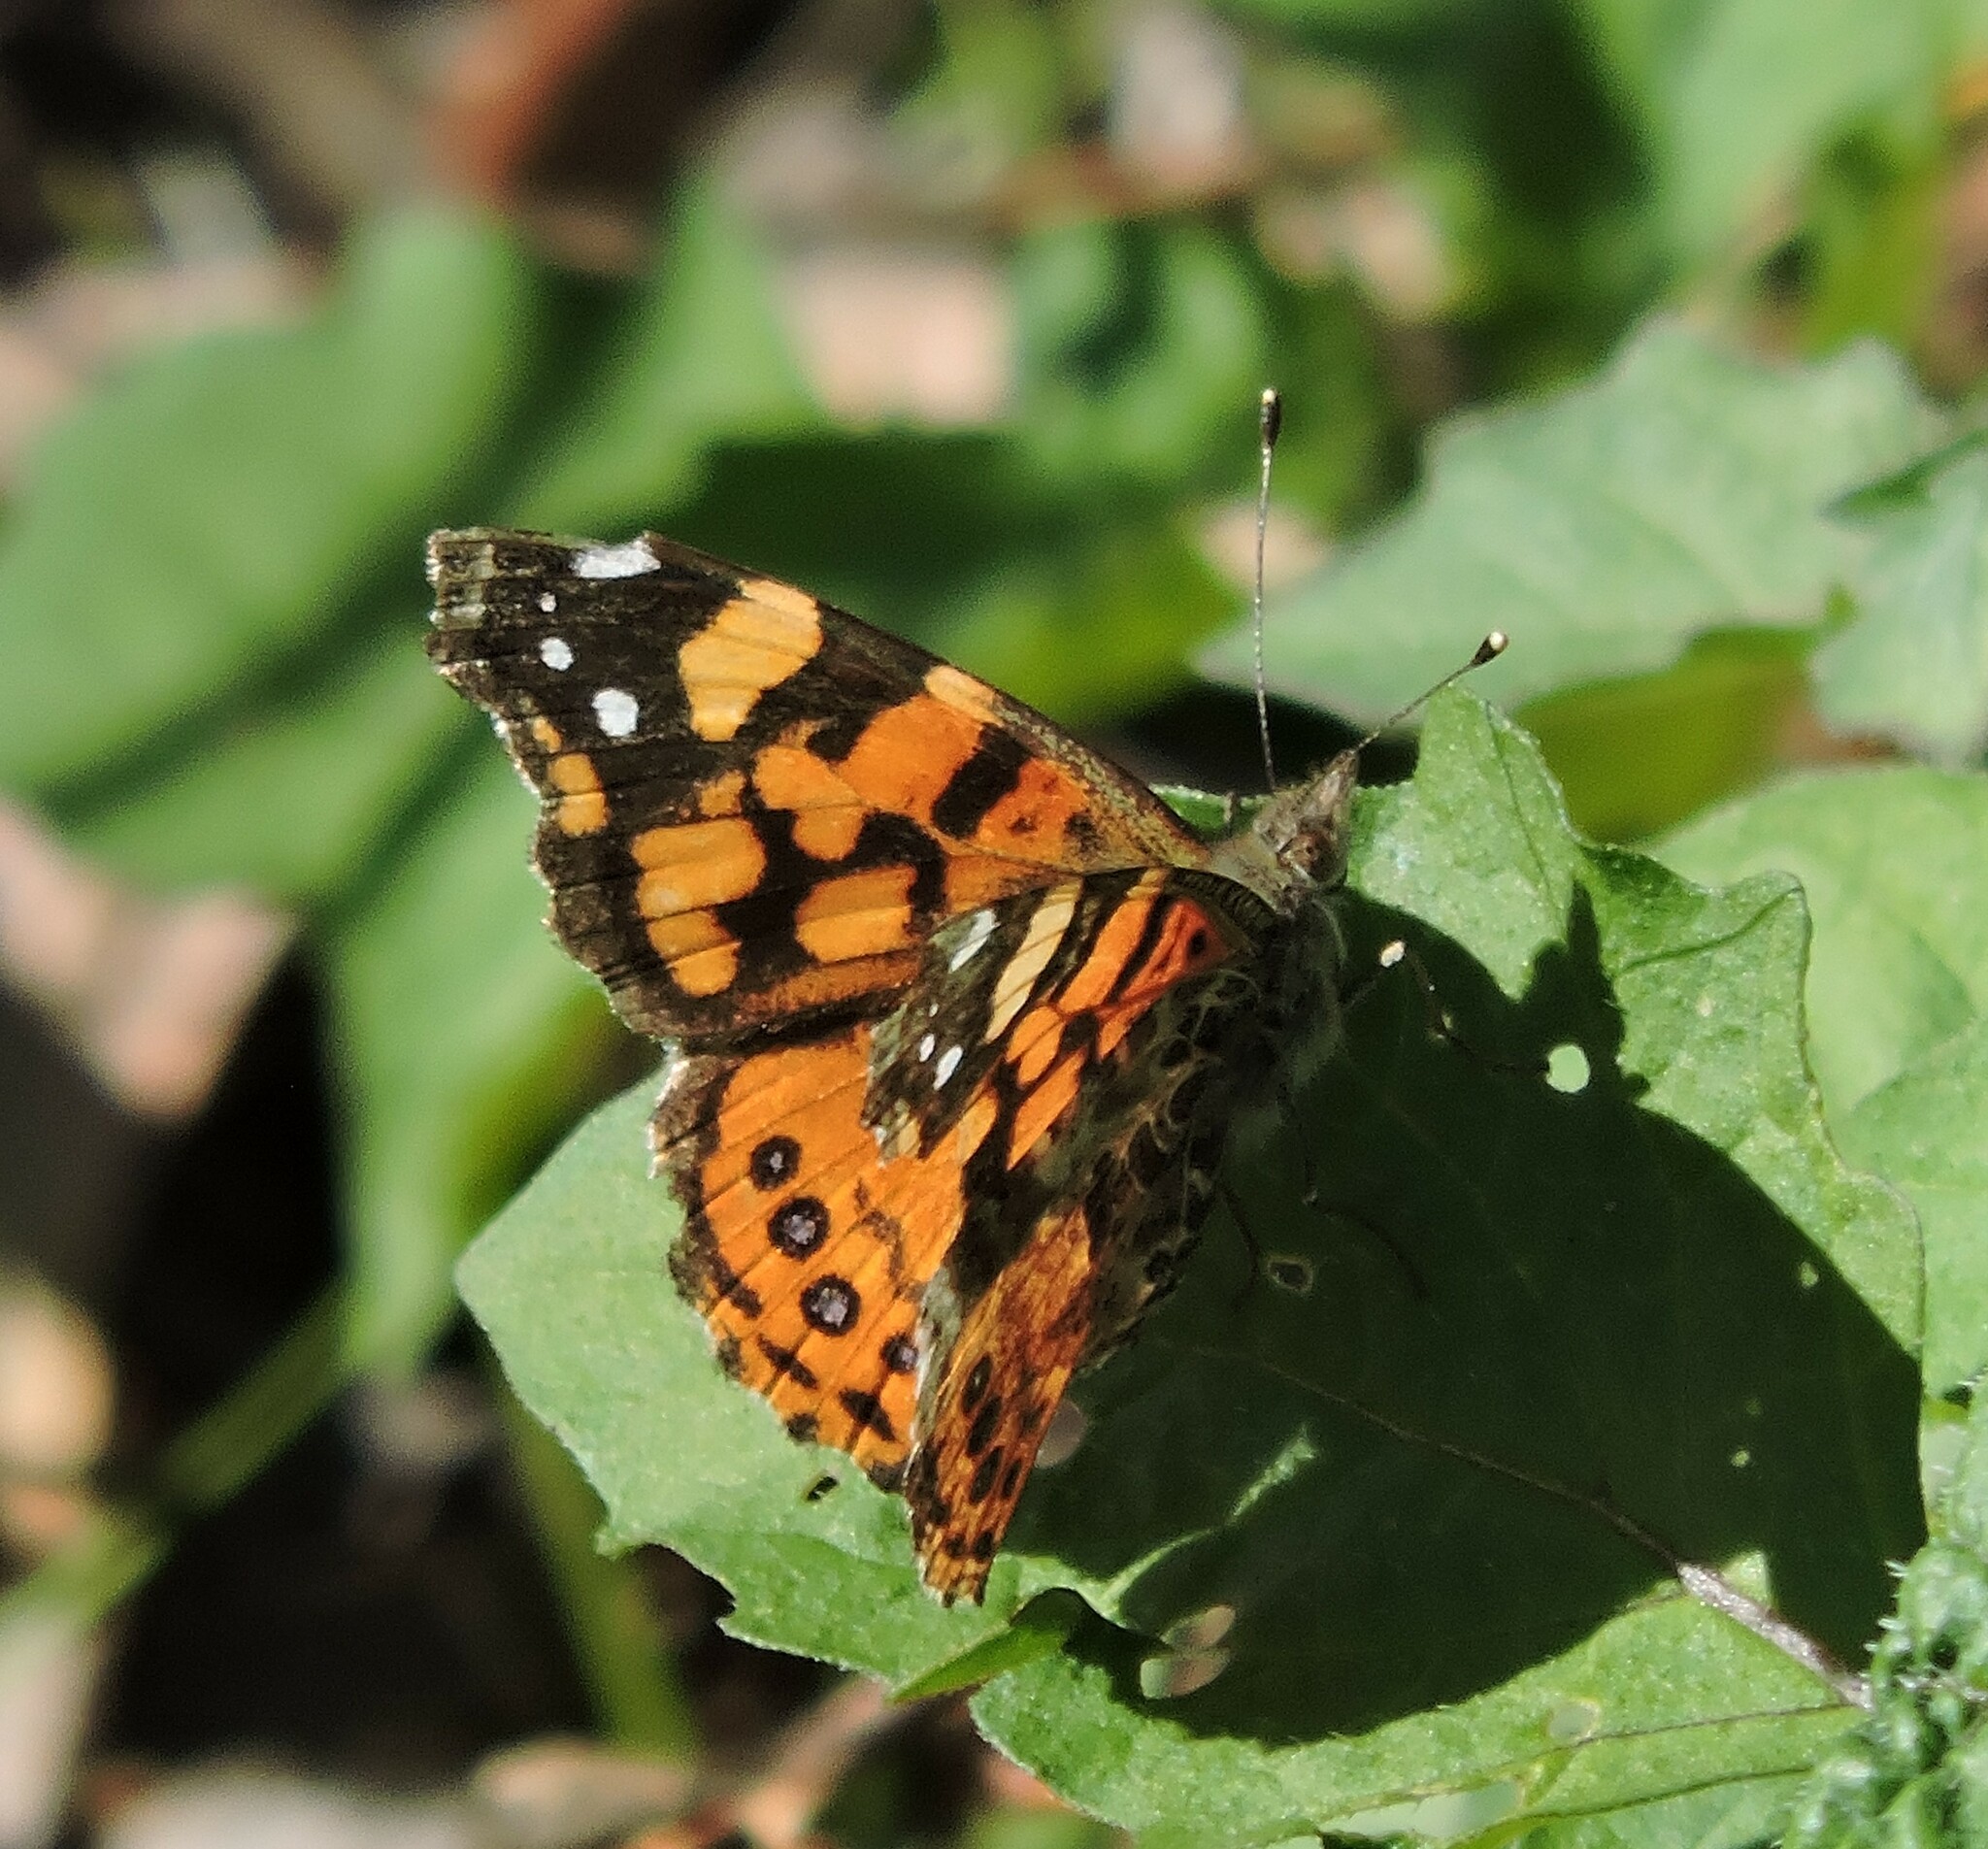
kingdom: Animalia
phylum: Arthropoda
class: Insecta
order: Lepidoptera
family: Nymphalidae
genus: Vanessa
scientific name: Vanessa annabella
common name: West coast lady
